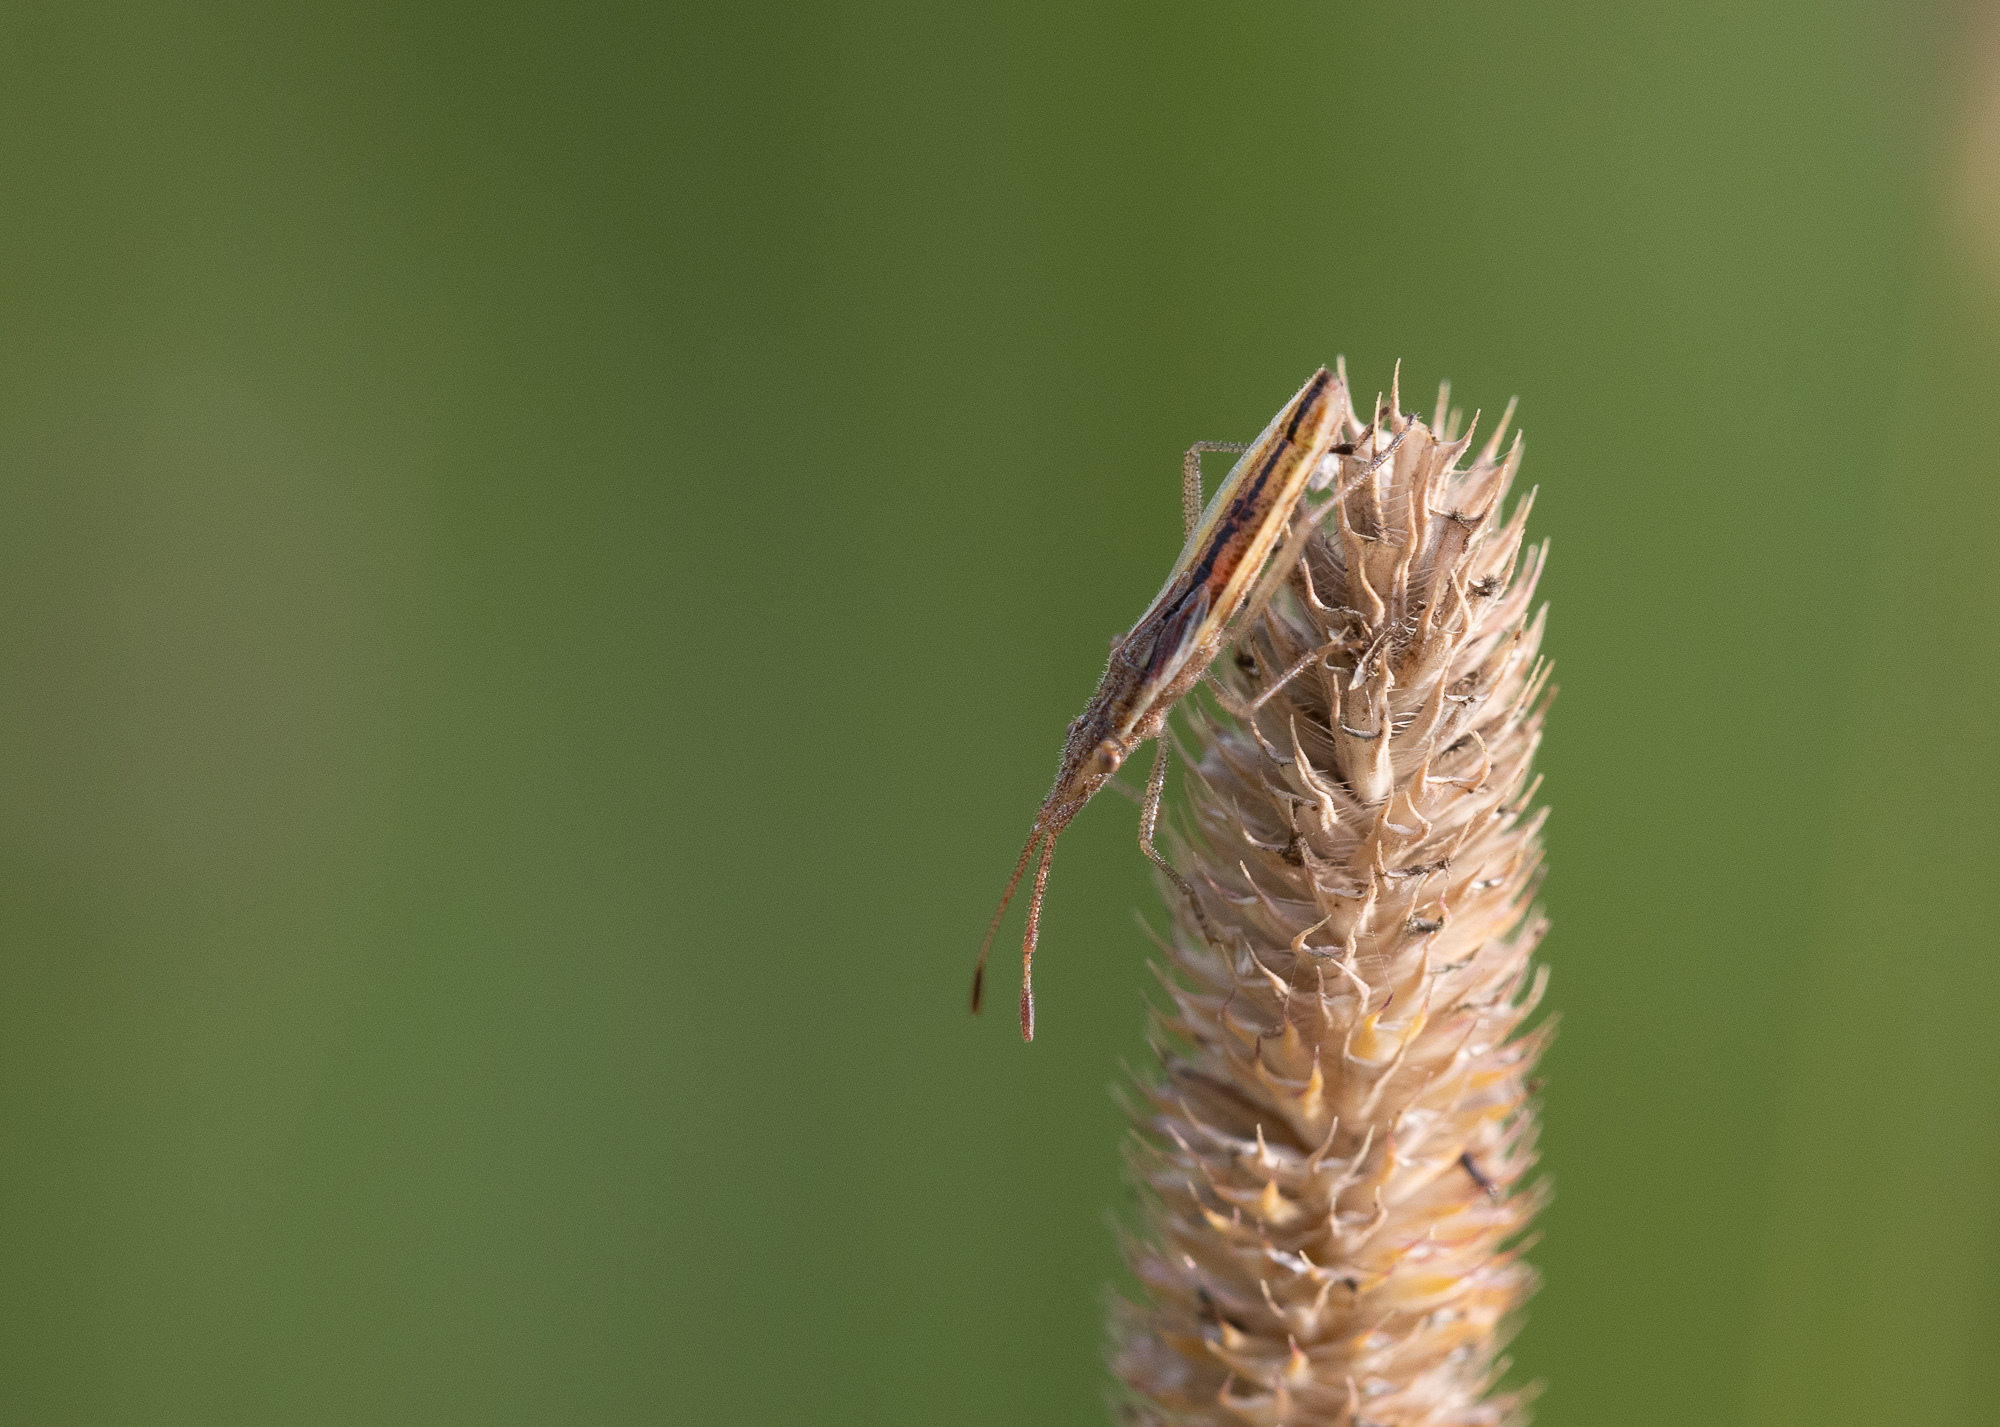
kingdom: Animalia
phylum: Arthropoda
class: Insecta
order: Hemiptera
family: Rhopalidae
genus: Myrmus
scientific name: Myrmus miriformis
